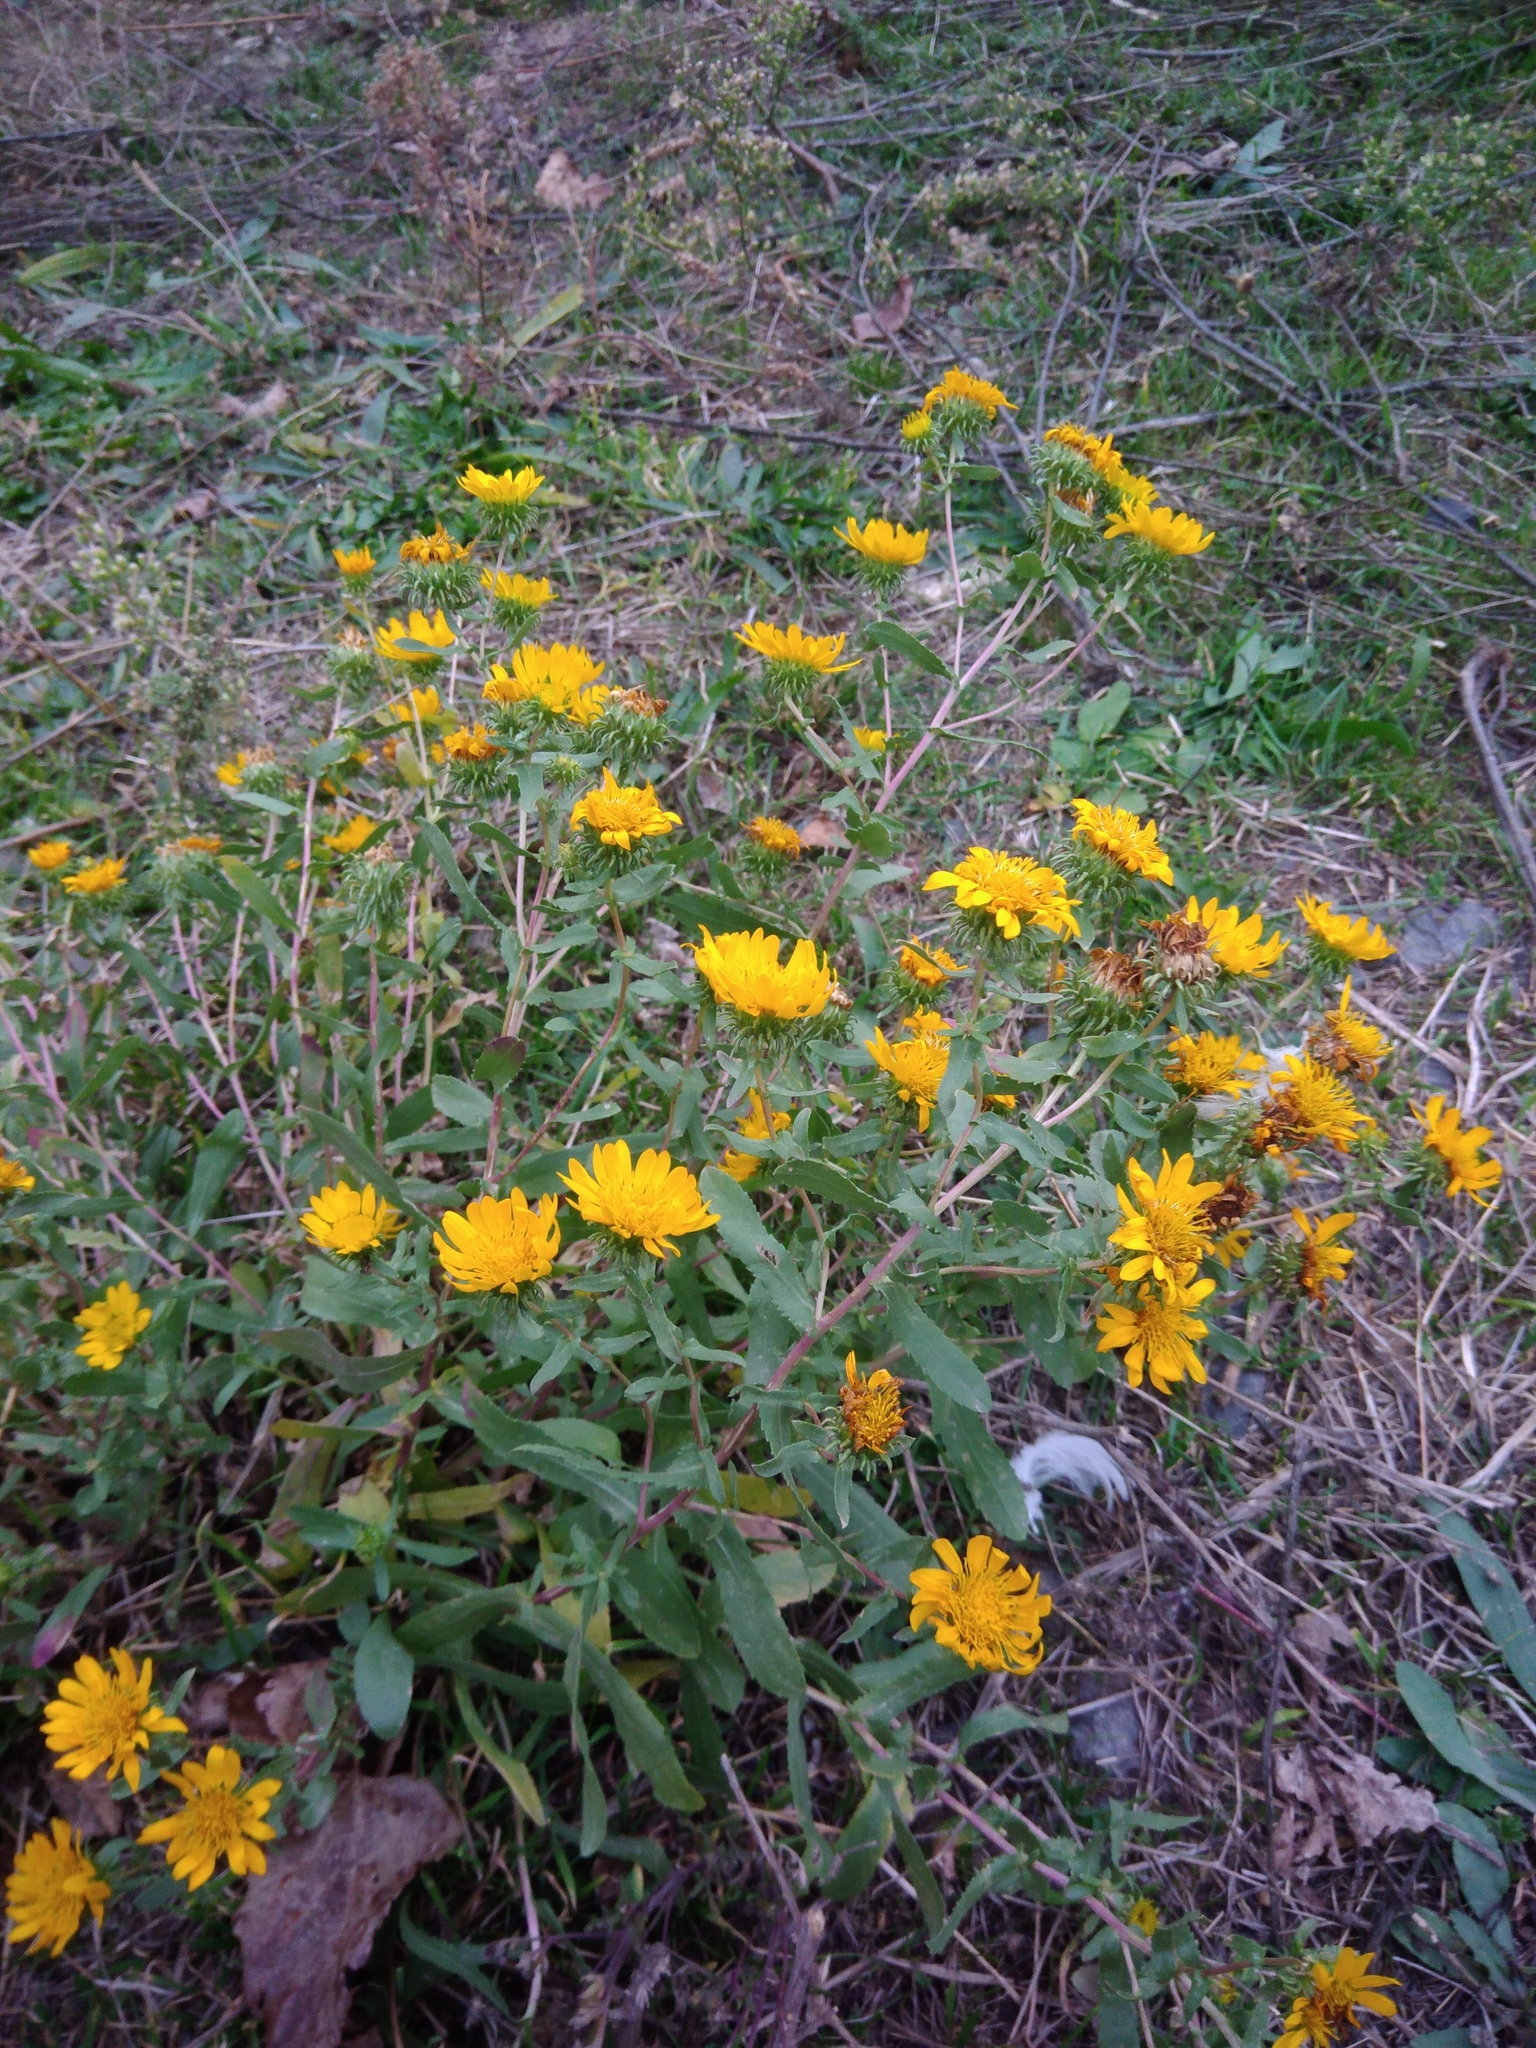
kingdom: Plantae
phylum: Tracheophyta
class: Magnoliopsida
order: Asterales
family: Asteraceae
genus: Grindelia
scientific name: Grindelia squarrosa
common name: Curly-cup gumweed
